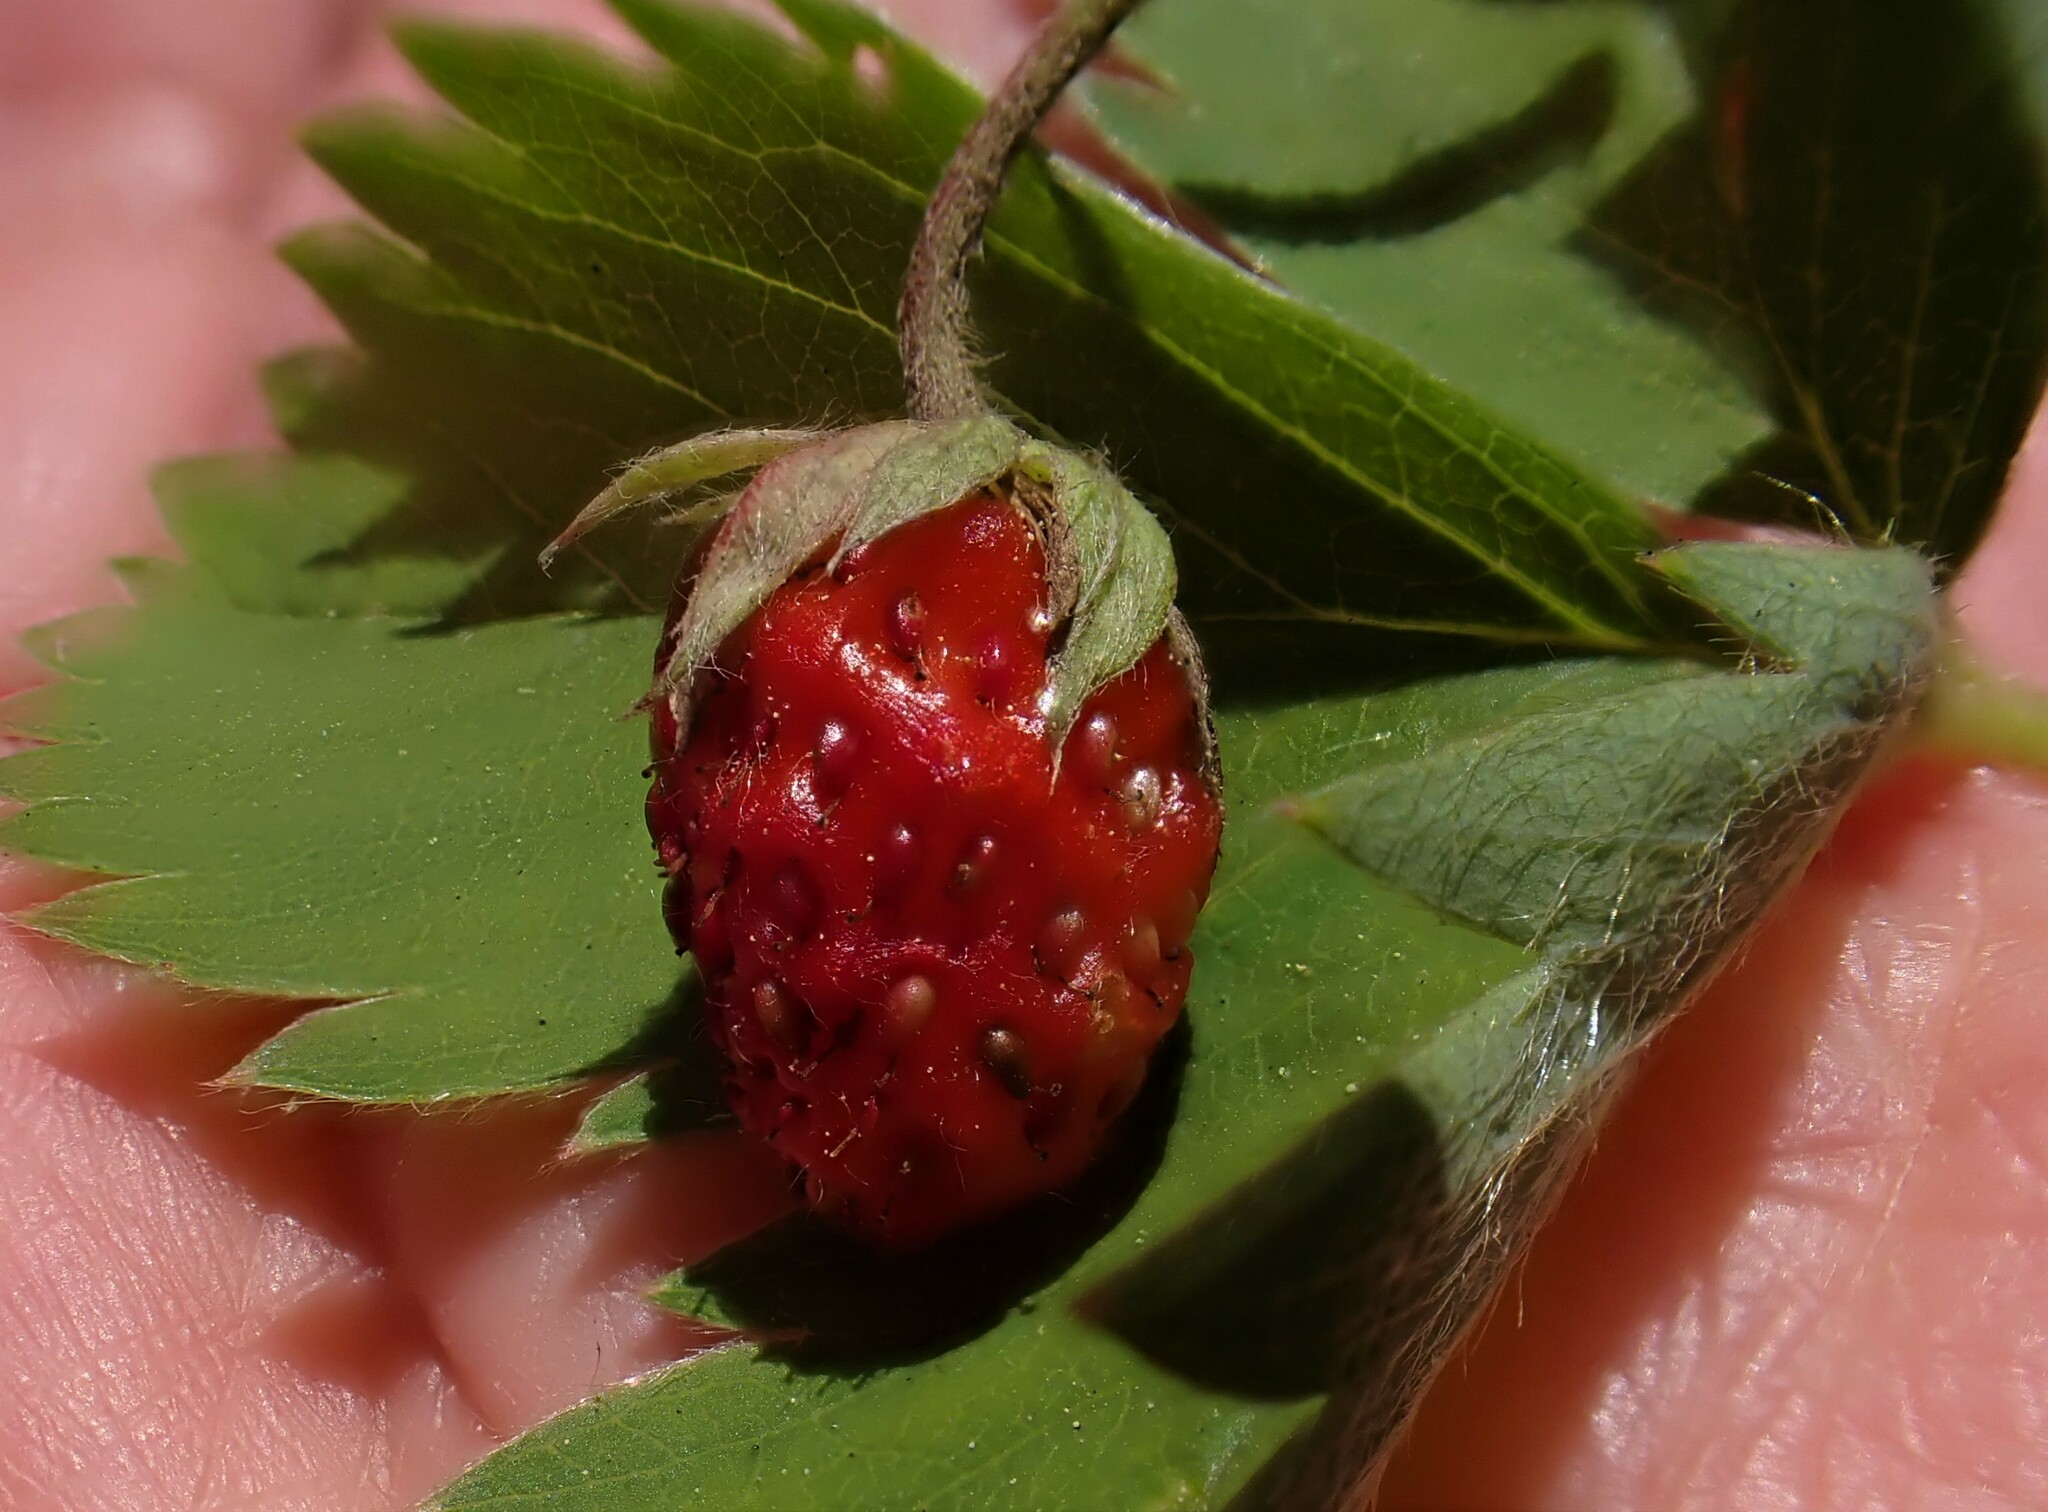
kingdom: Plantae
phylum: Tracheophyta
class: Magnoliopsida
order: Rosales
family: Rosaceae
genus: Fragaria
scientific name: Fragaria virginiana
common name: Thickleaved wild strawberry
